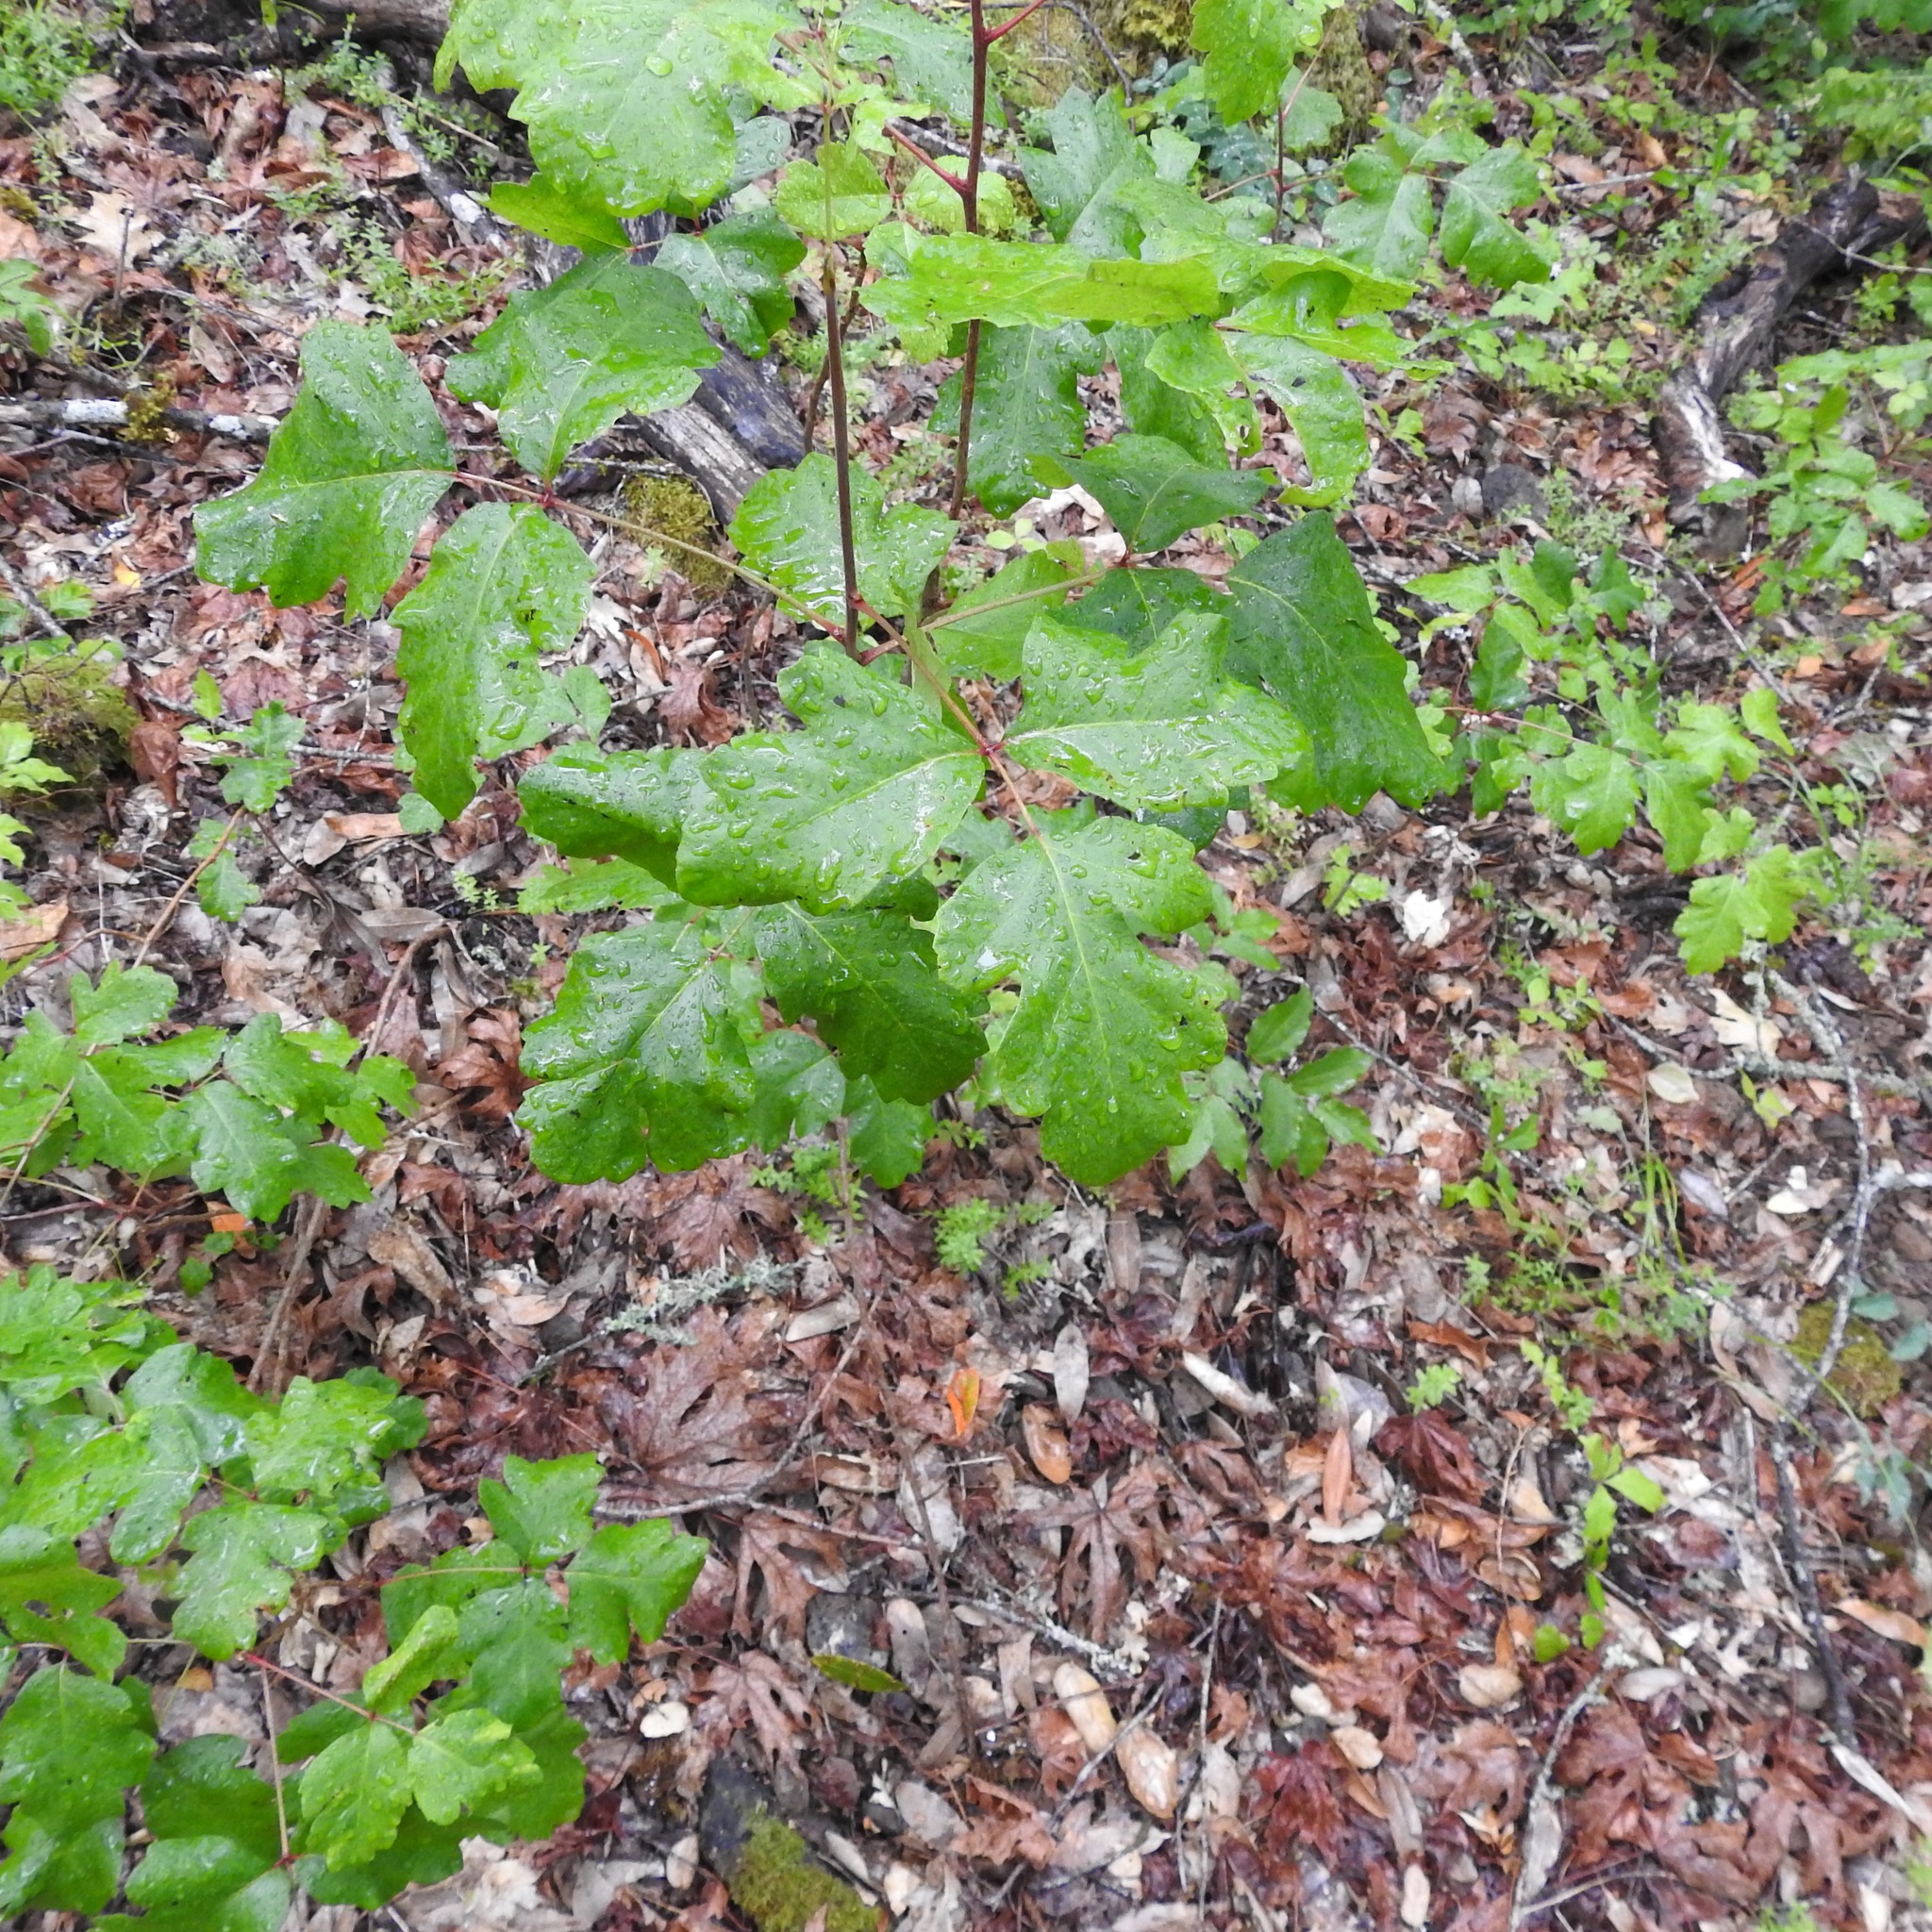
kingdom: Plantae
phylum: Tracheophyta
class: Magnoliopsida
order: Sapindales
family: Anacardiaceae
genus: Toxicodendron
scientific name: Toxicodendron diversilobum
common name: Pacific poison-oak
